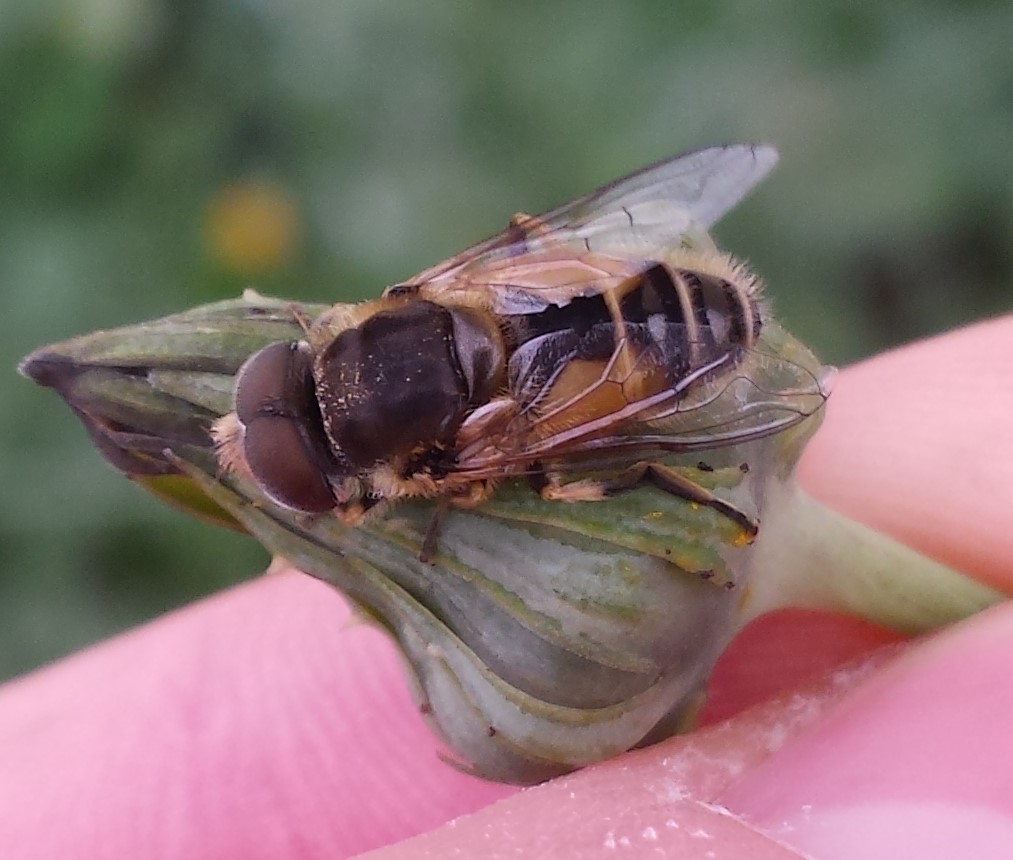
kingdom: Animalia
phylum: Arthropoda
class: Insecta
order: Diptera
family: Syrphidae
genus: Eristalis
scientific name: Eristalis arbustorum
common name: Hover fly
